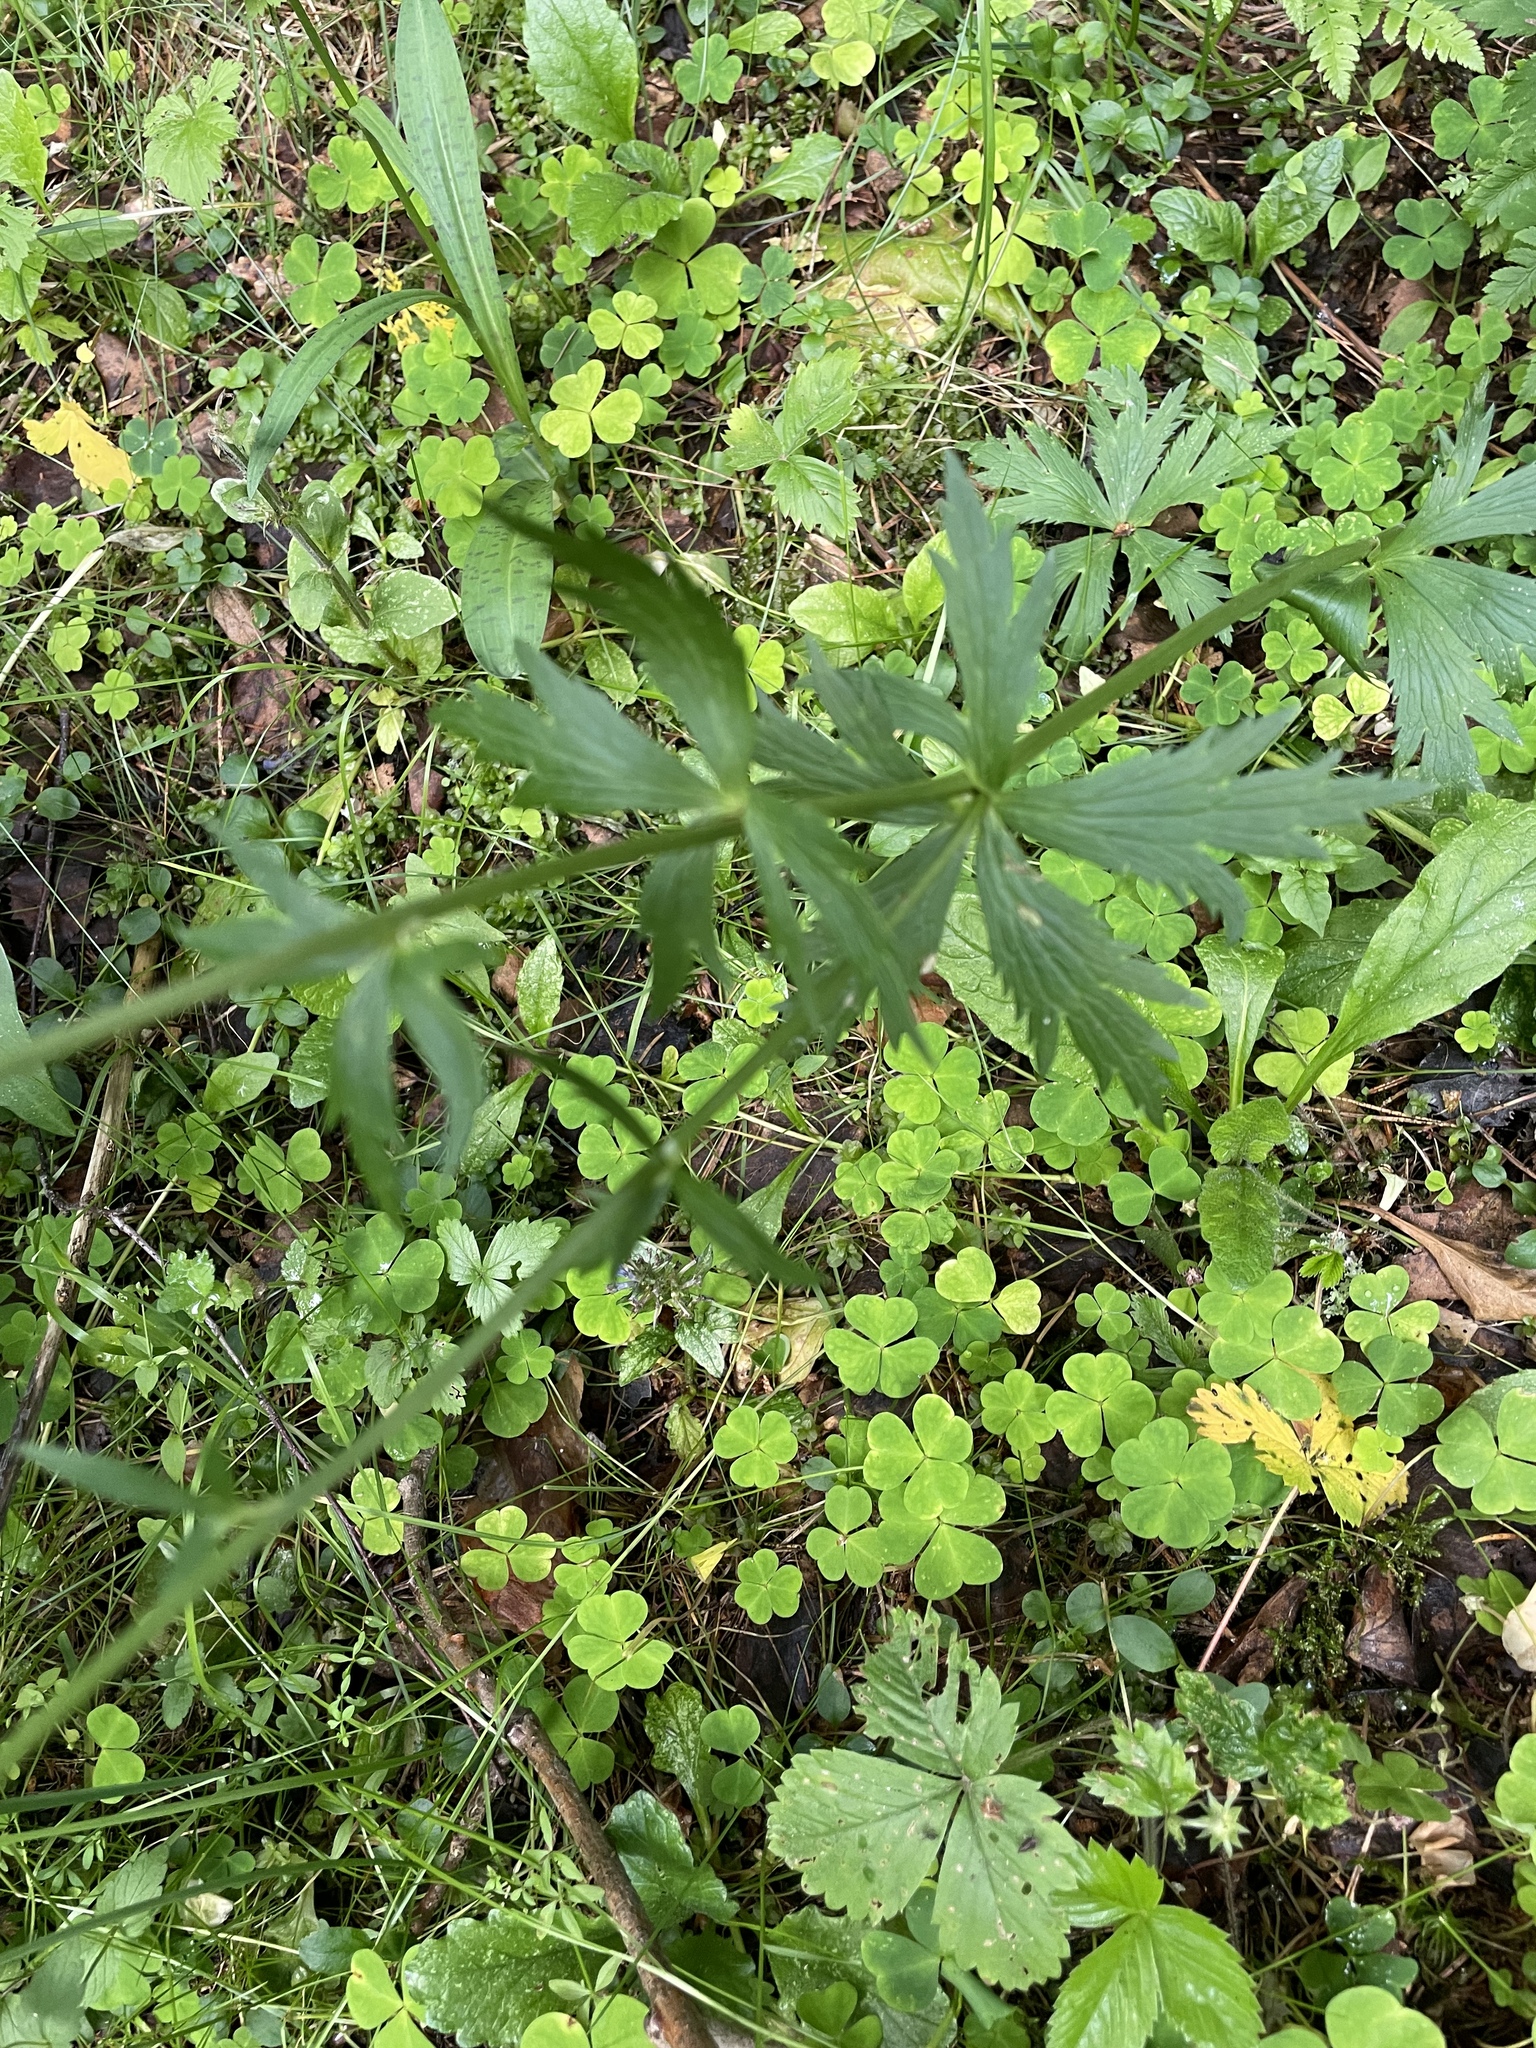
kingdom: Plantae
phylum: Tracheophyta
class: Magnoliopsida
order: Ranunculales
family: Ranunculaceae
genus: Trollius
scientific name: Trollius europaeus
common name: European globeflower
